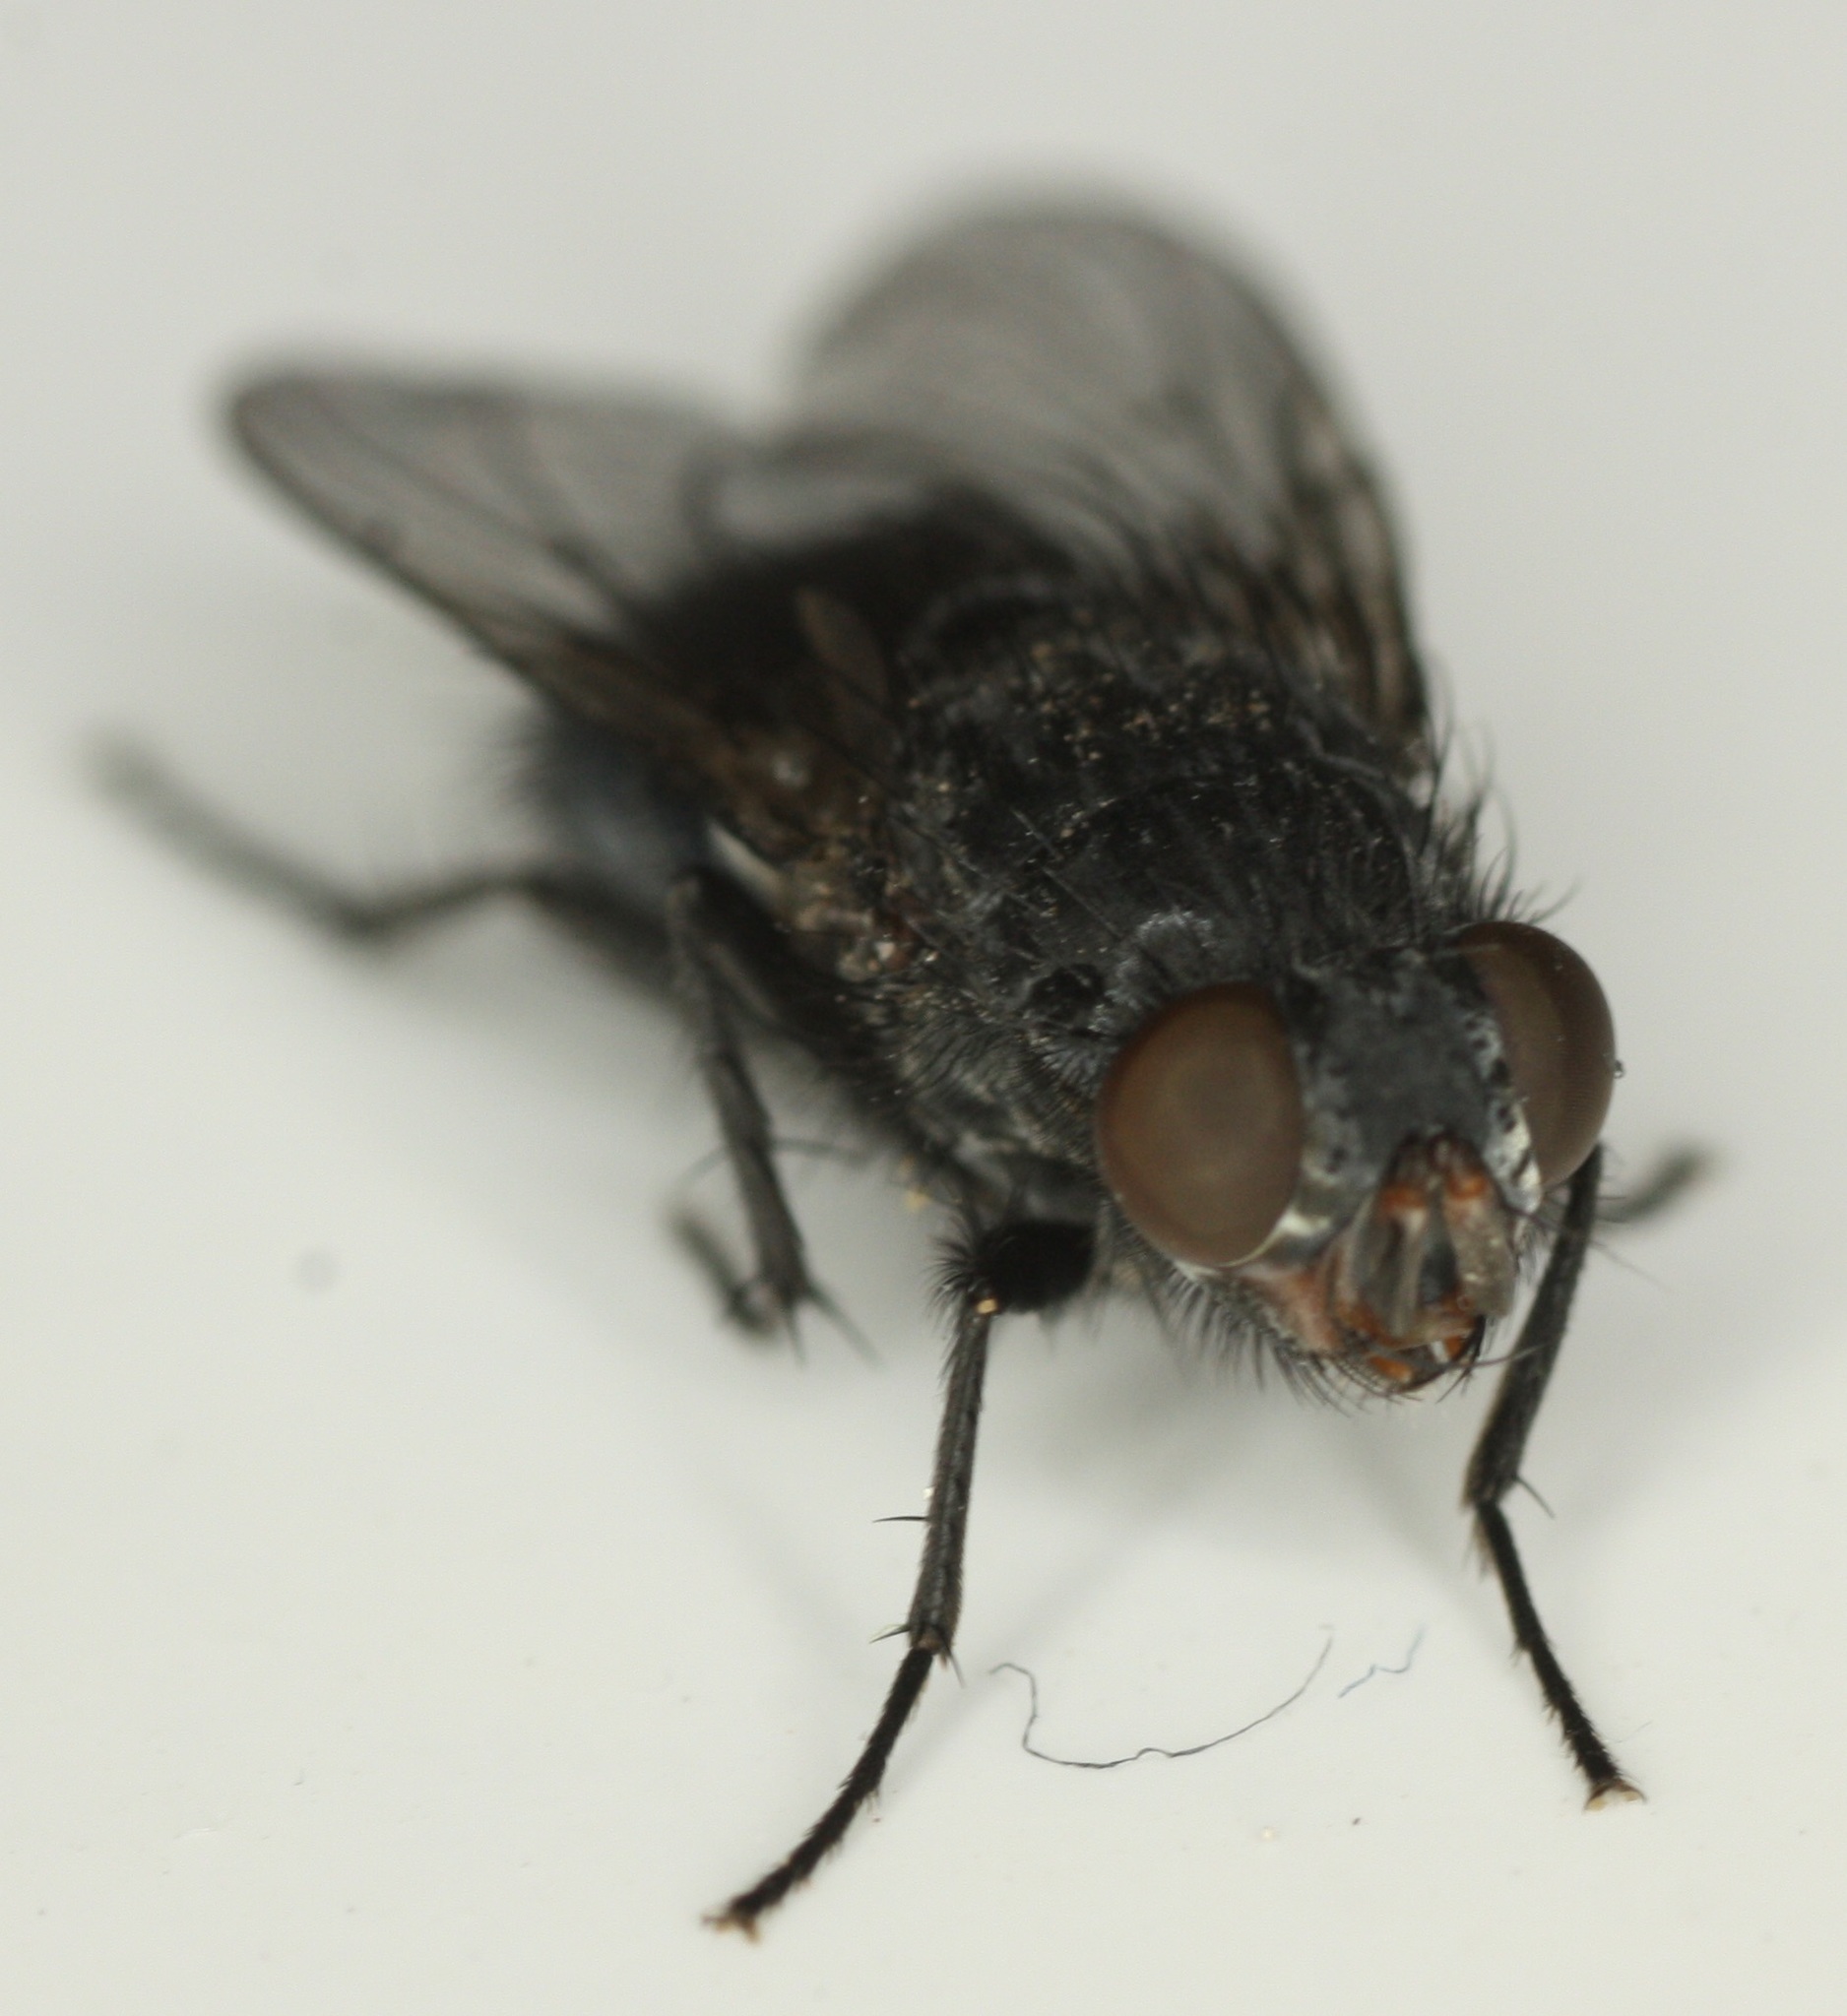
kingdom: Animalia
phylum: Arthropoda
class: Insecta
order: Diptera
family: Calliphoridae
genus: Calliphora
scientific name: Calliphora latifrons
